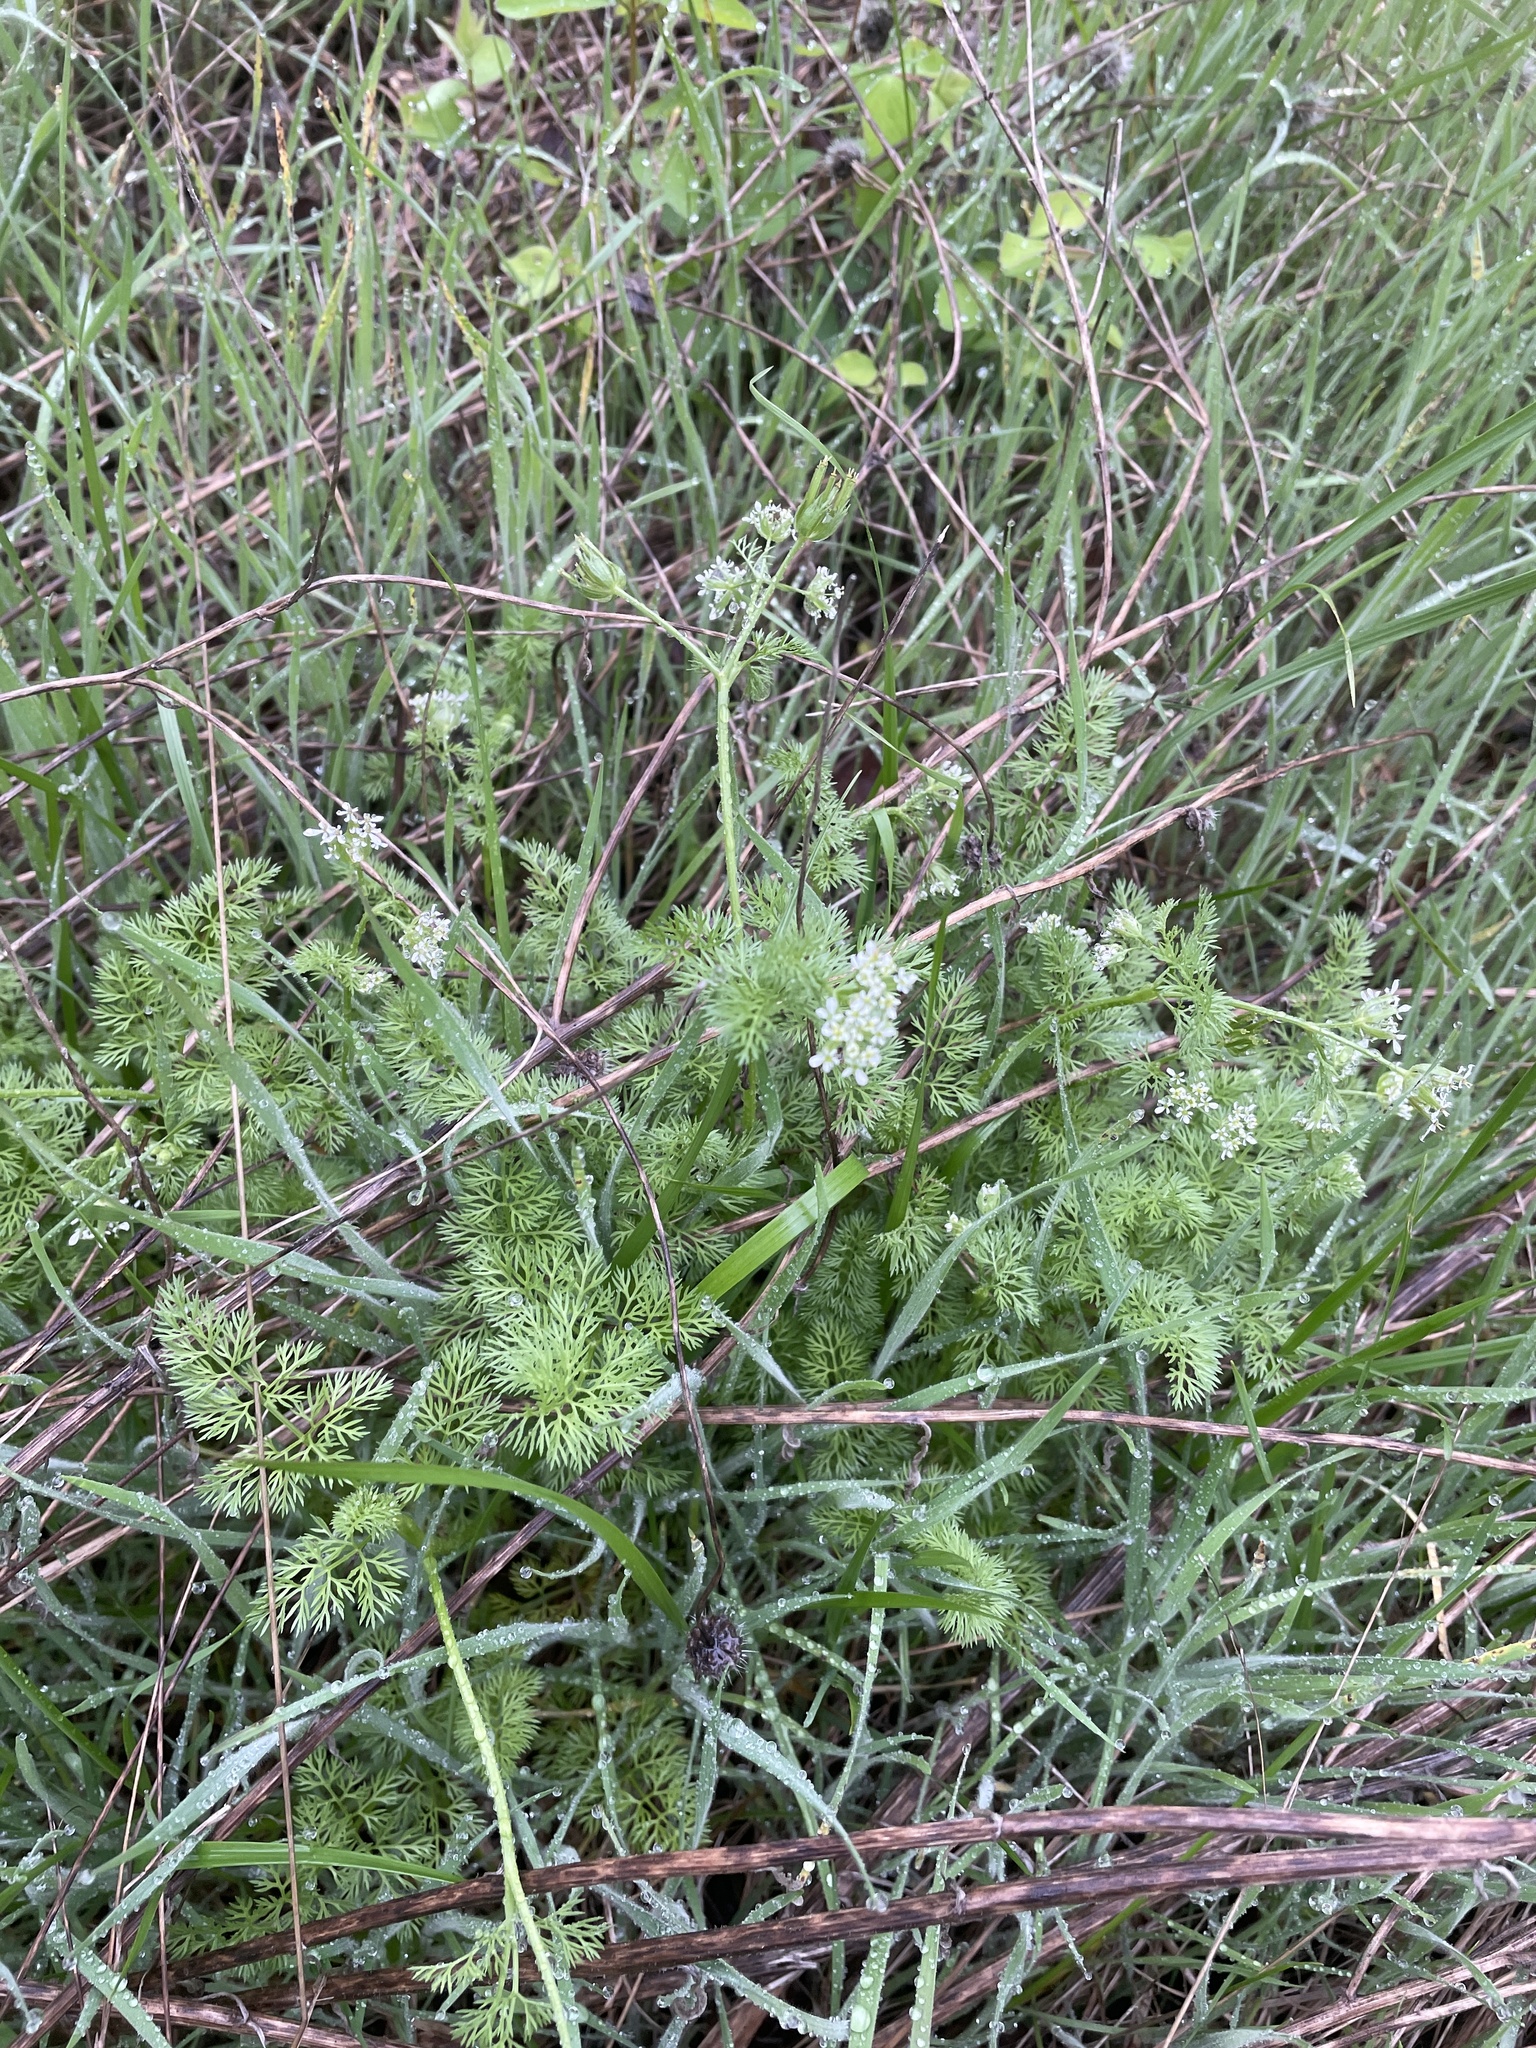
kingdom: Plantae
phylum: Tracheophyta
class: Magnoliopsida
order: Apiales
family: Apiaceae
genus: Scandix
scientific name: Scandix pecten-veneris
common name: Shepherd's-needle
